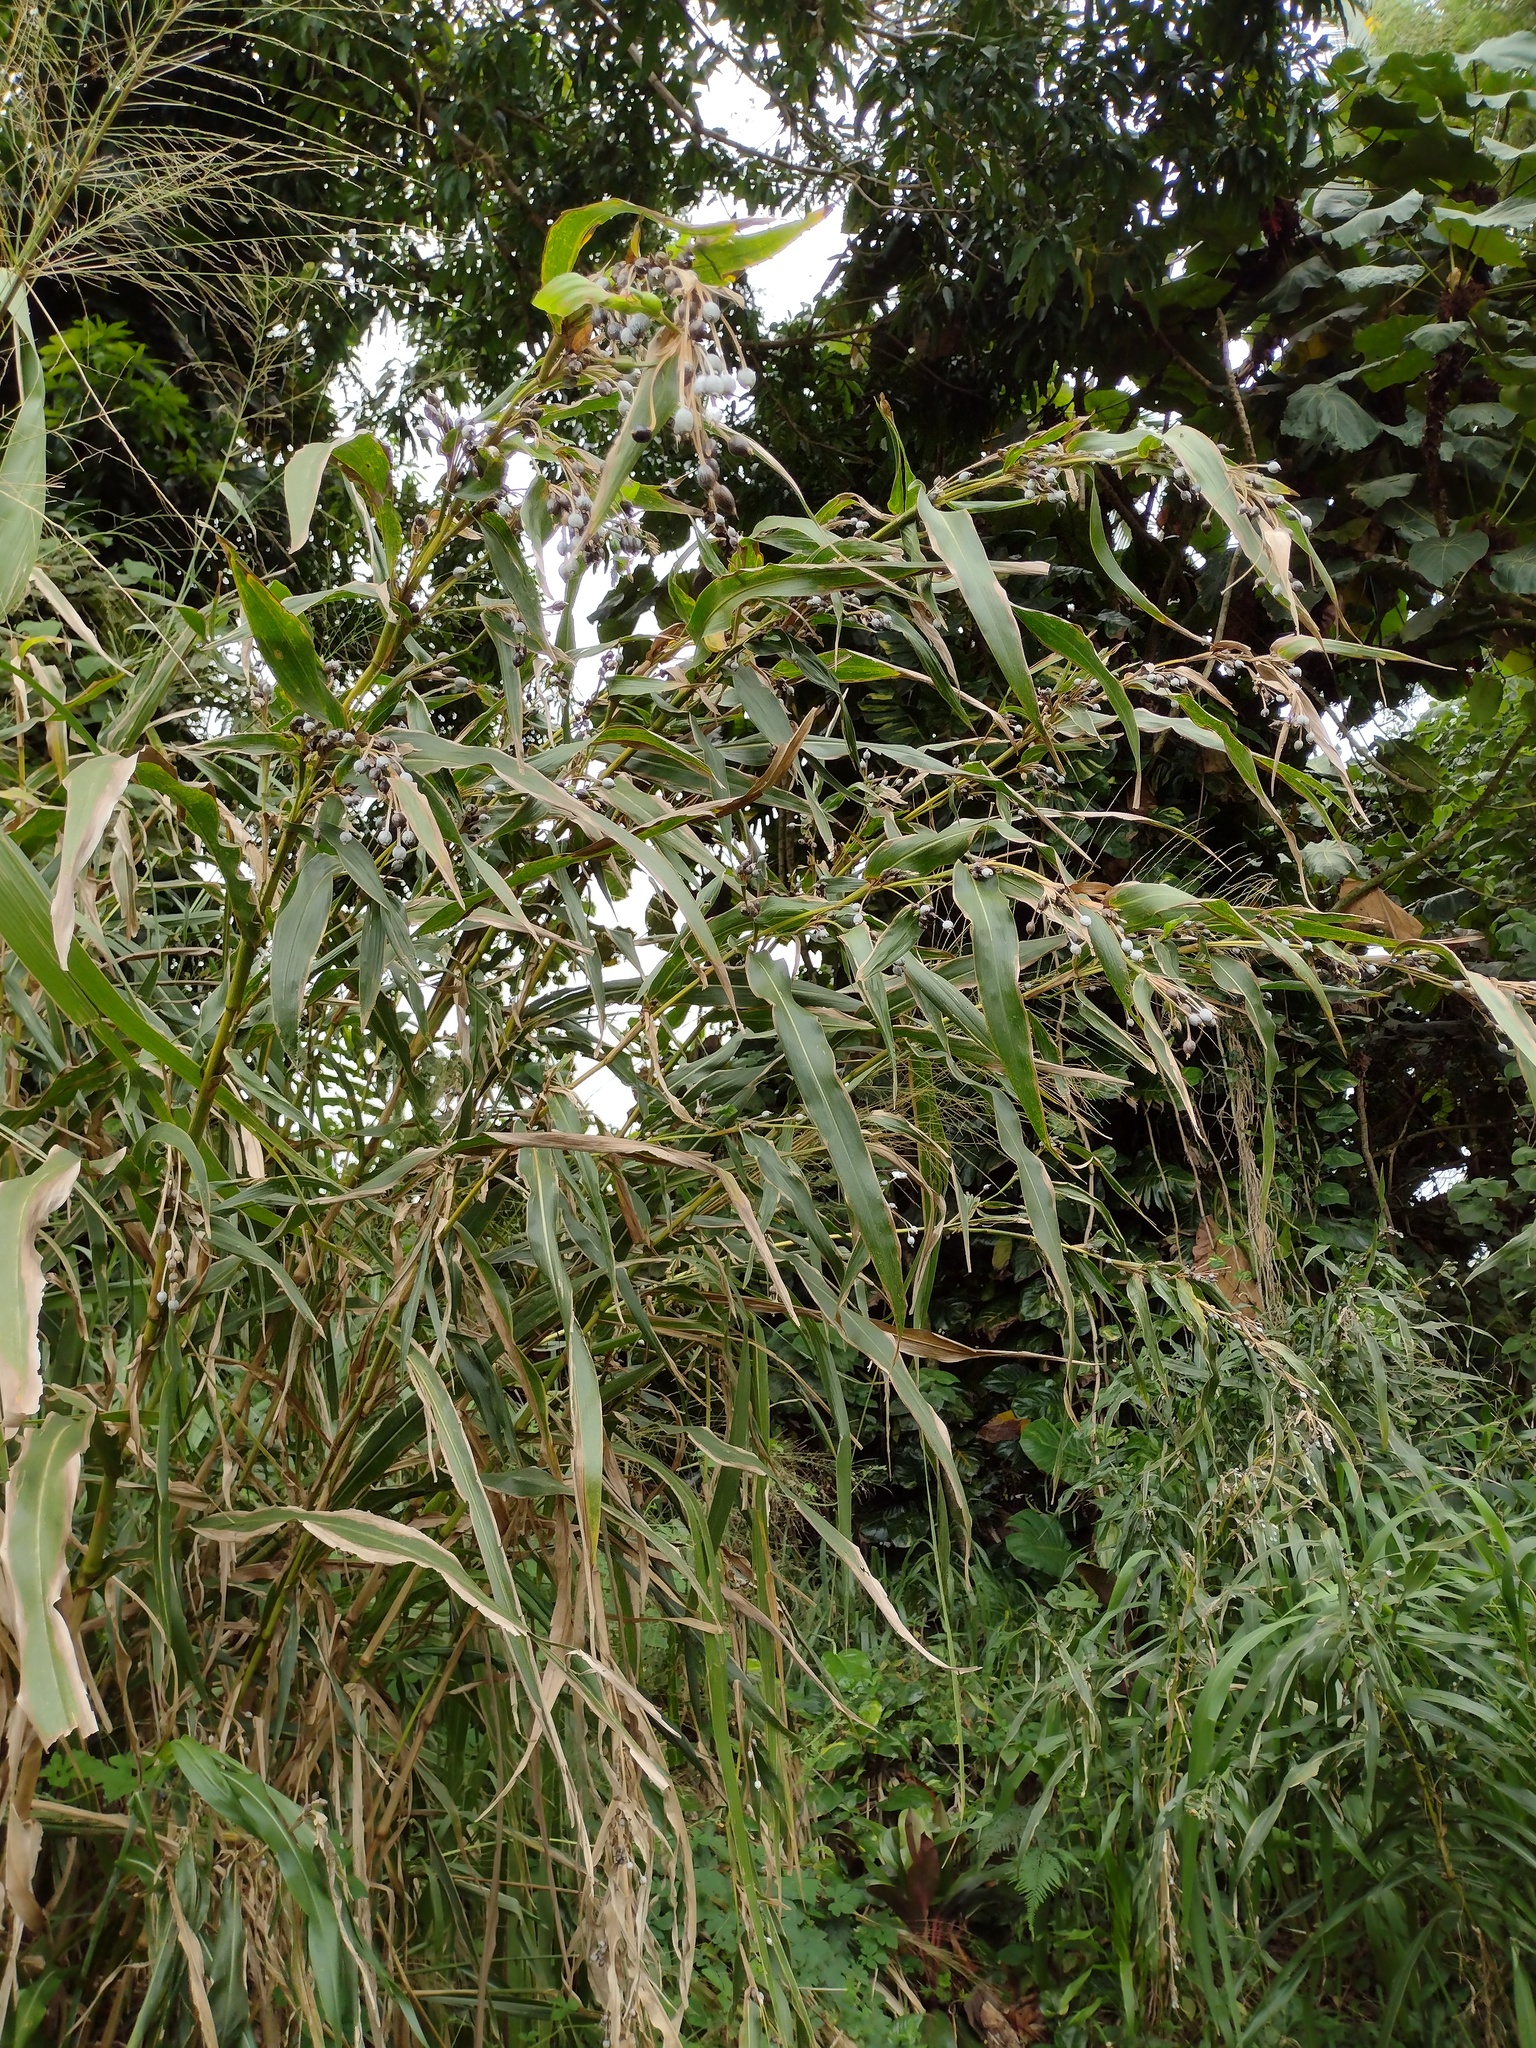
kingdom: Plantae
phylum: Tracheophyta
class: Liliopsida
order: Poales
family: Poaceae
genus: Coix
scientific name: Coix lacryma-jobi
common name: Job's tears
